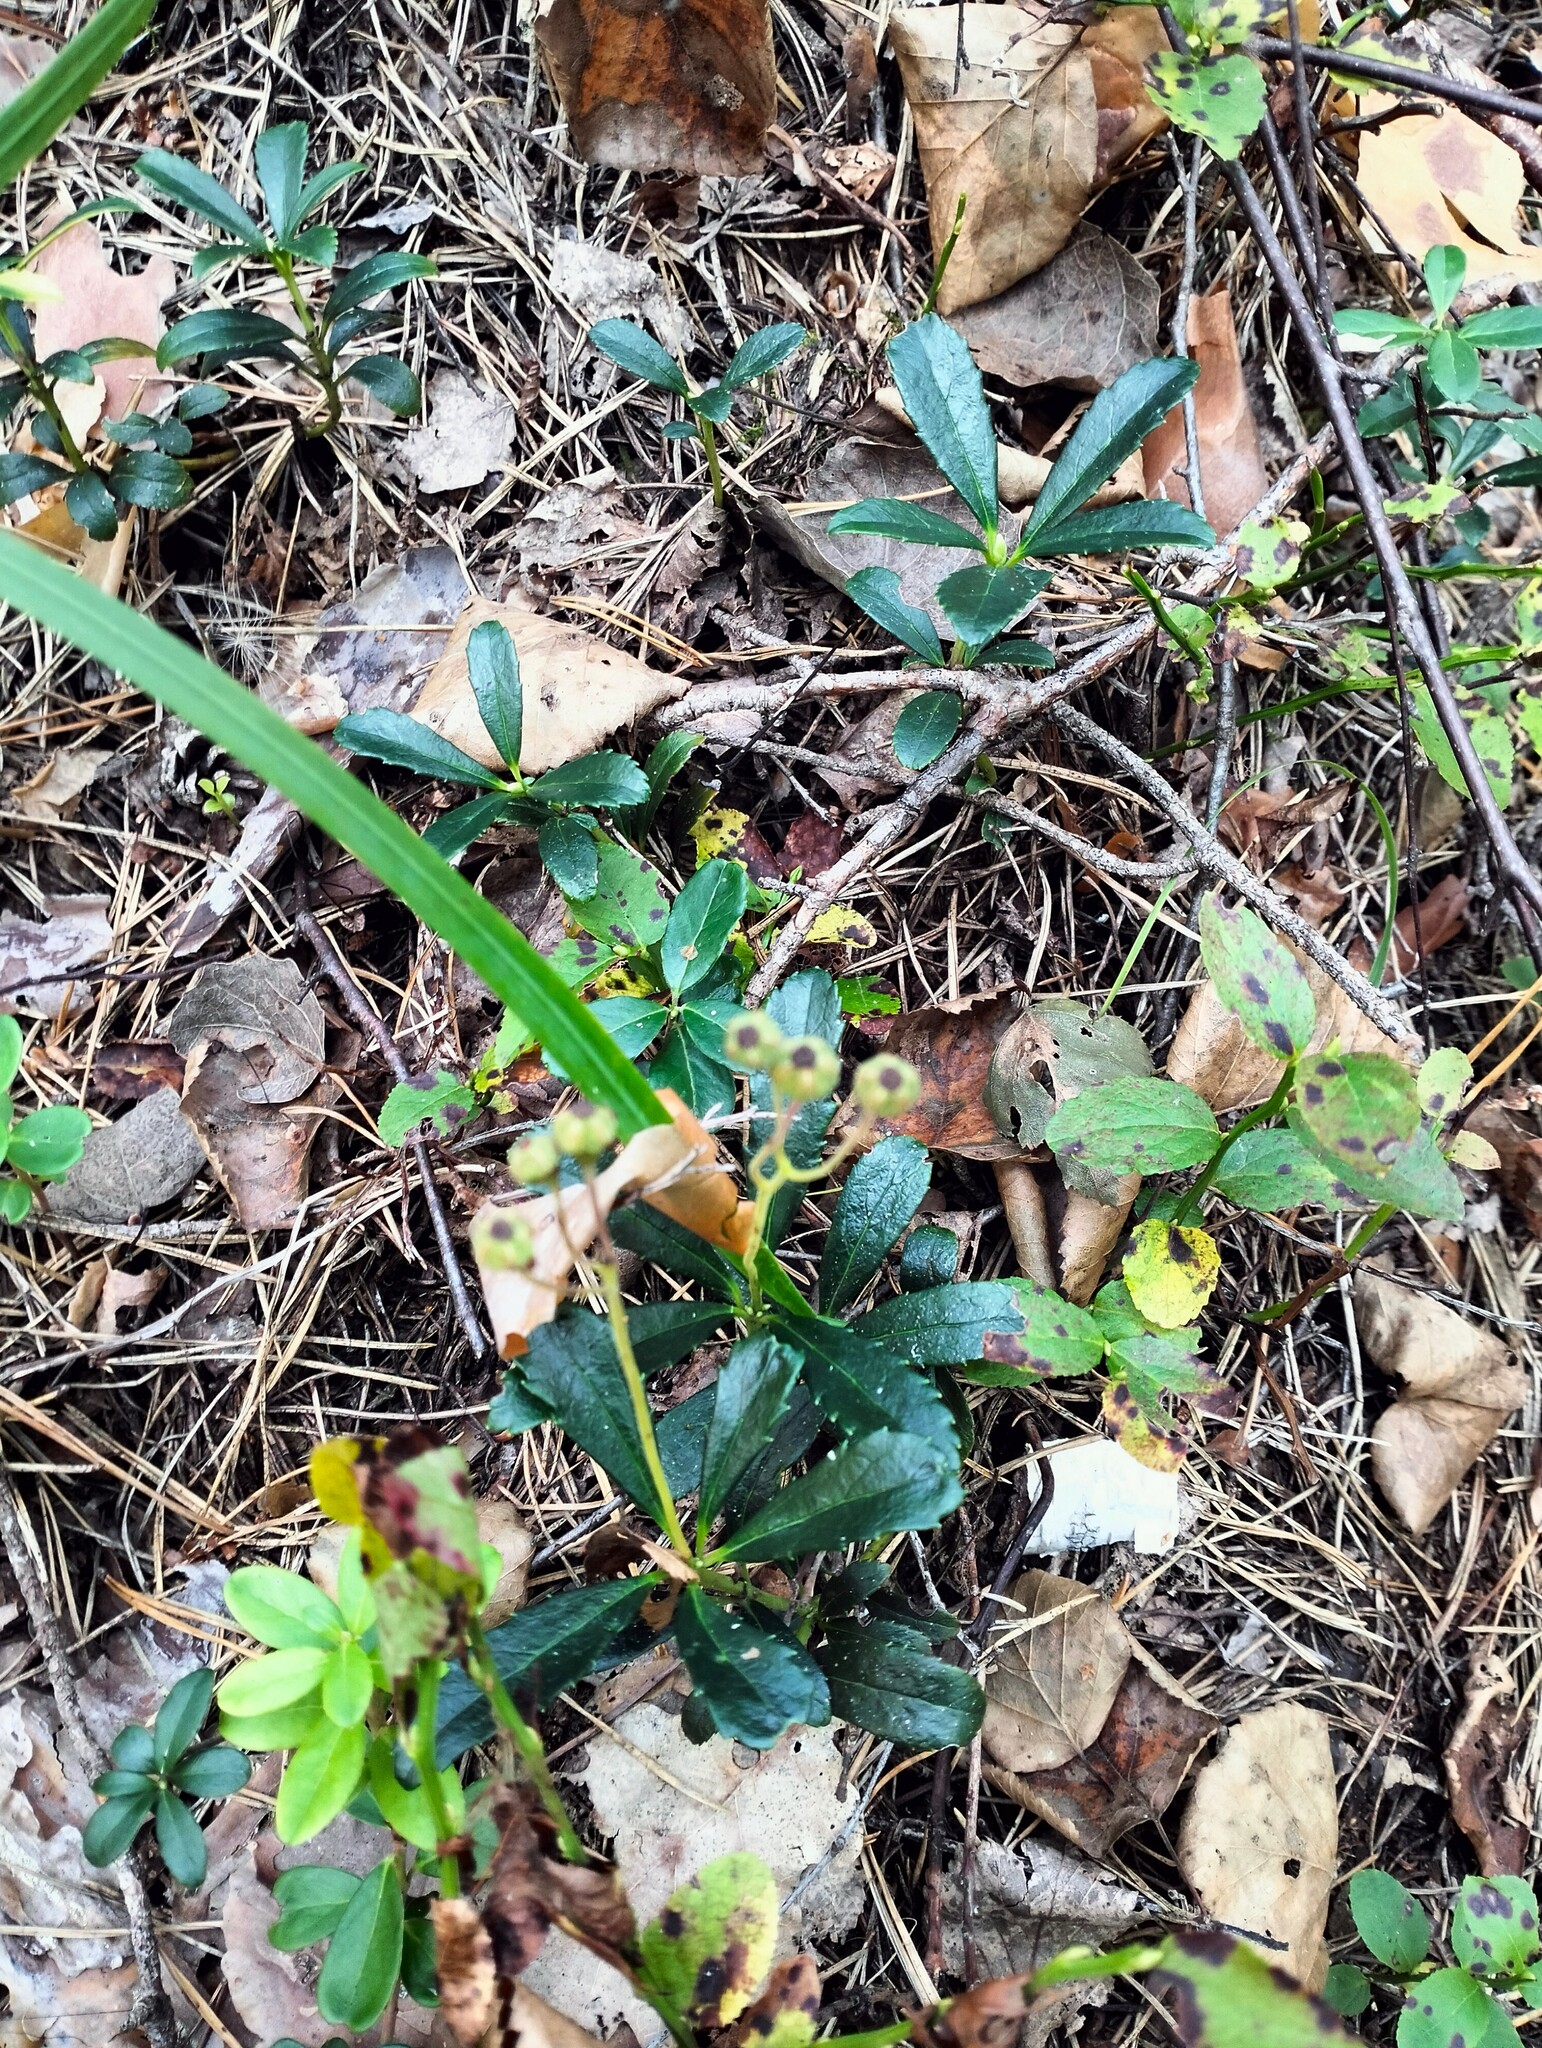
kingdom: Plantae
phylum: Tracheophyta
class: Magnoliopsida
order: Ericales
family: Ericaceae
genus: Chimaphila
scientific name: Chimaphila umbellata
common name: Pipsissewa
